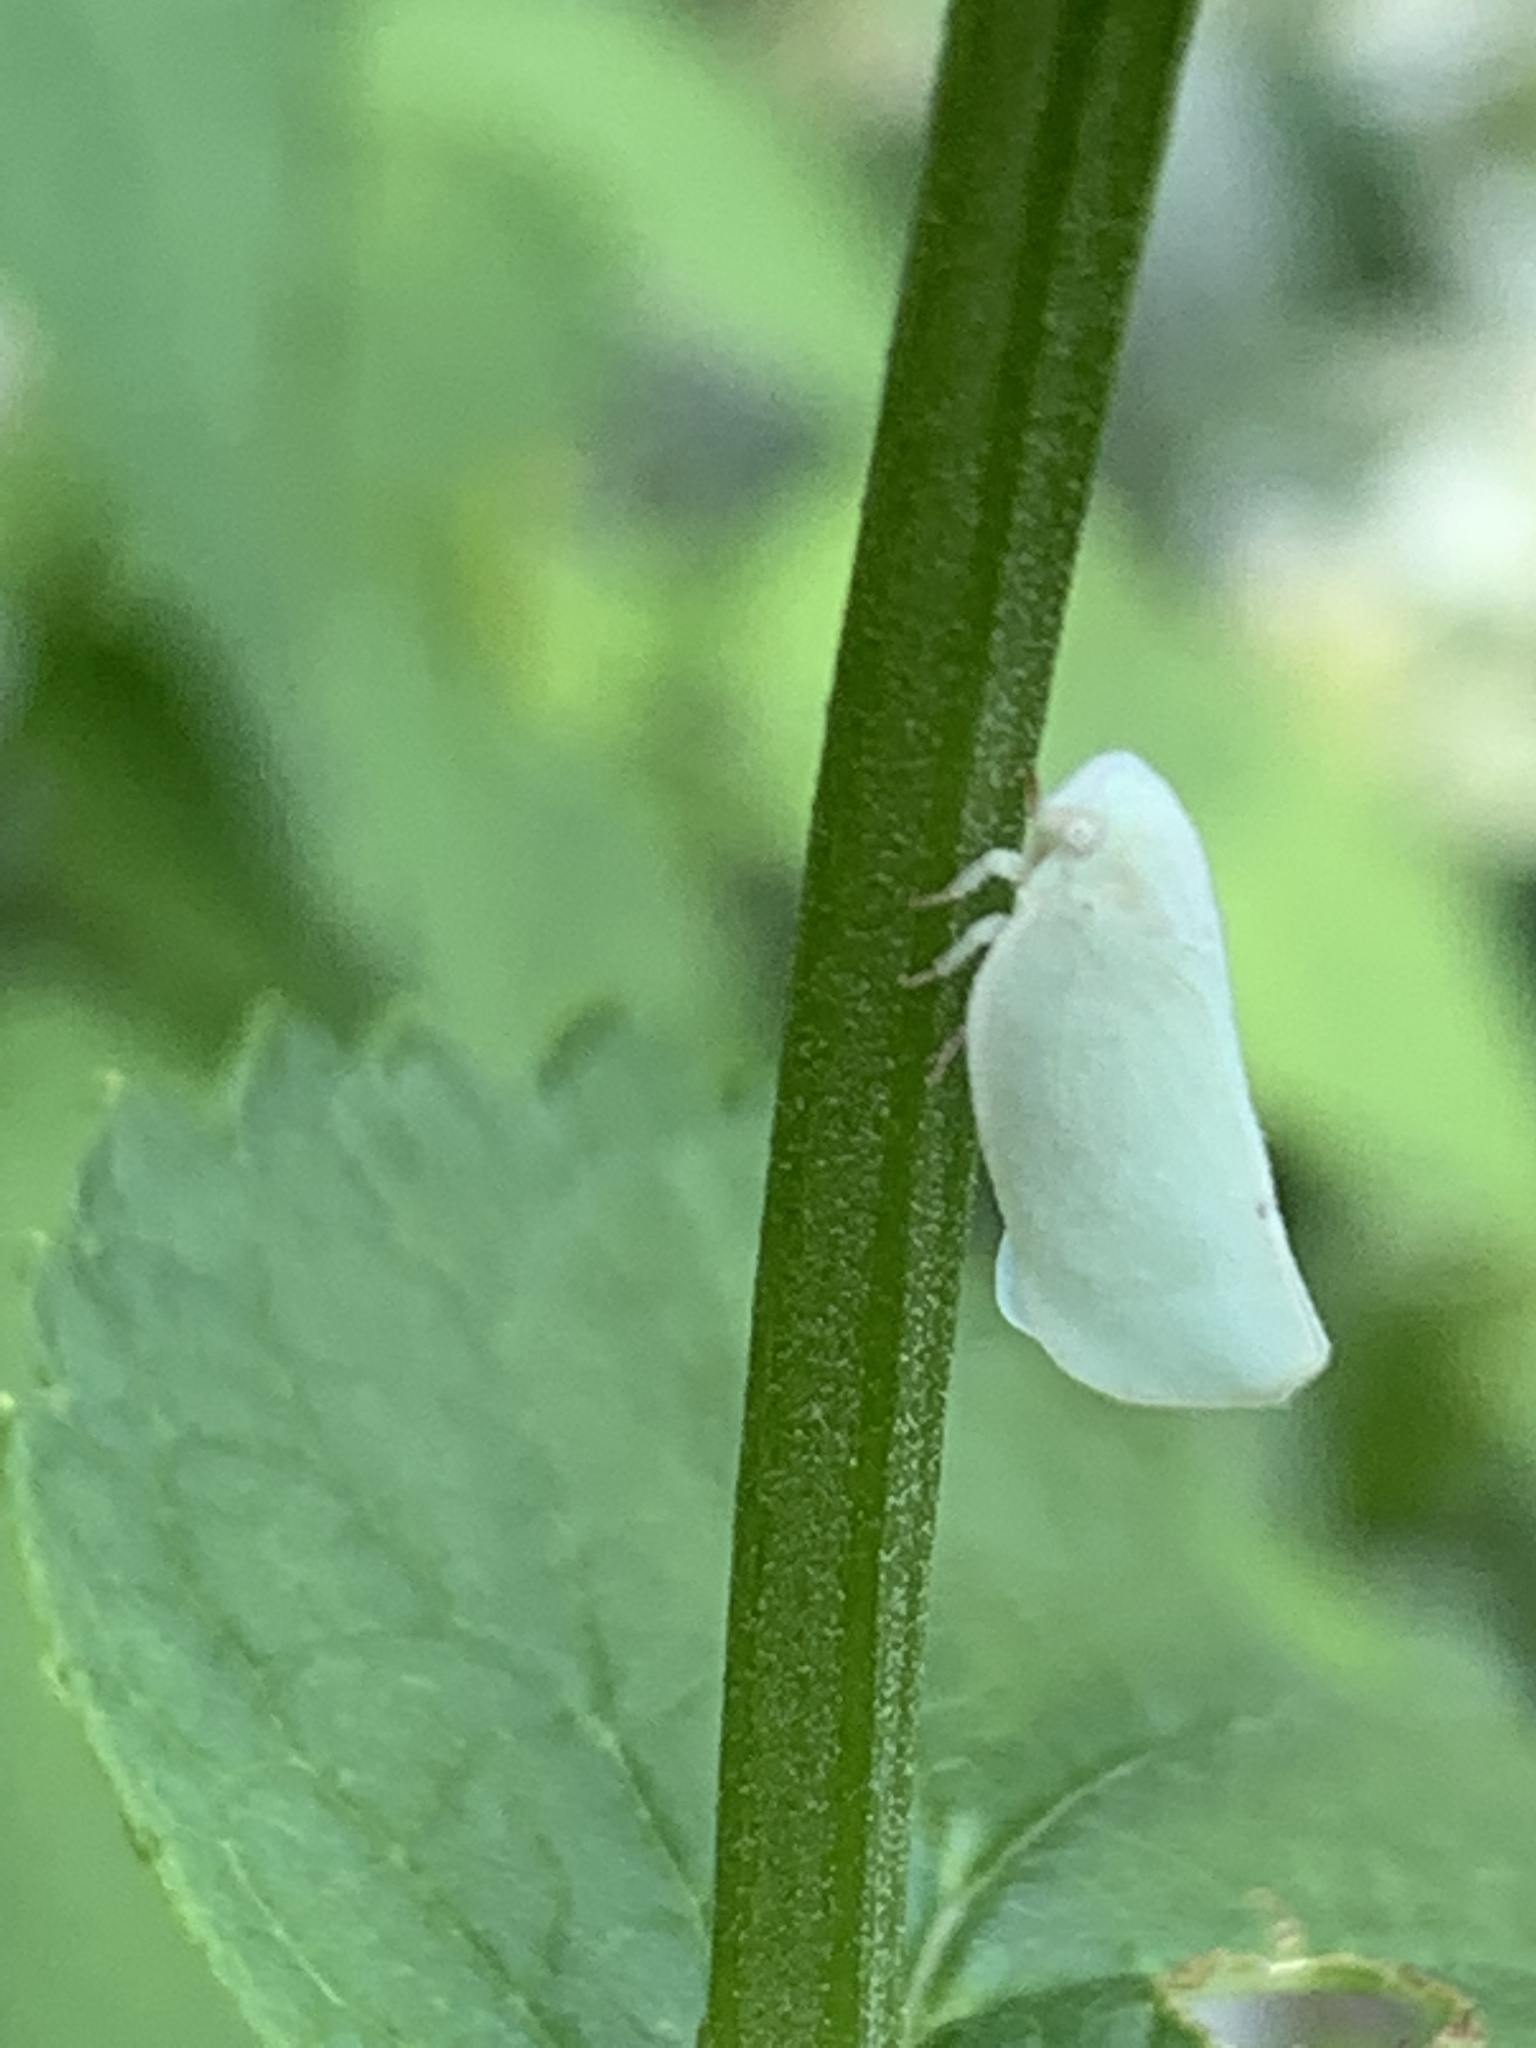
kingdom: Animalia
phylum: Arthropoda
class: Insecta
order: Hemiptera
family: Flatidae
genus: Flatormenis
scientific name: Flatormenis proxima
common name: Northern flatid planthopper
